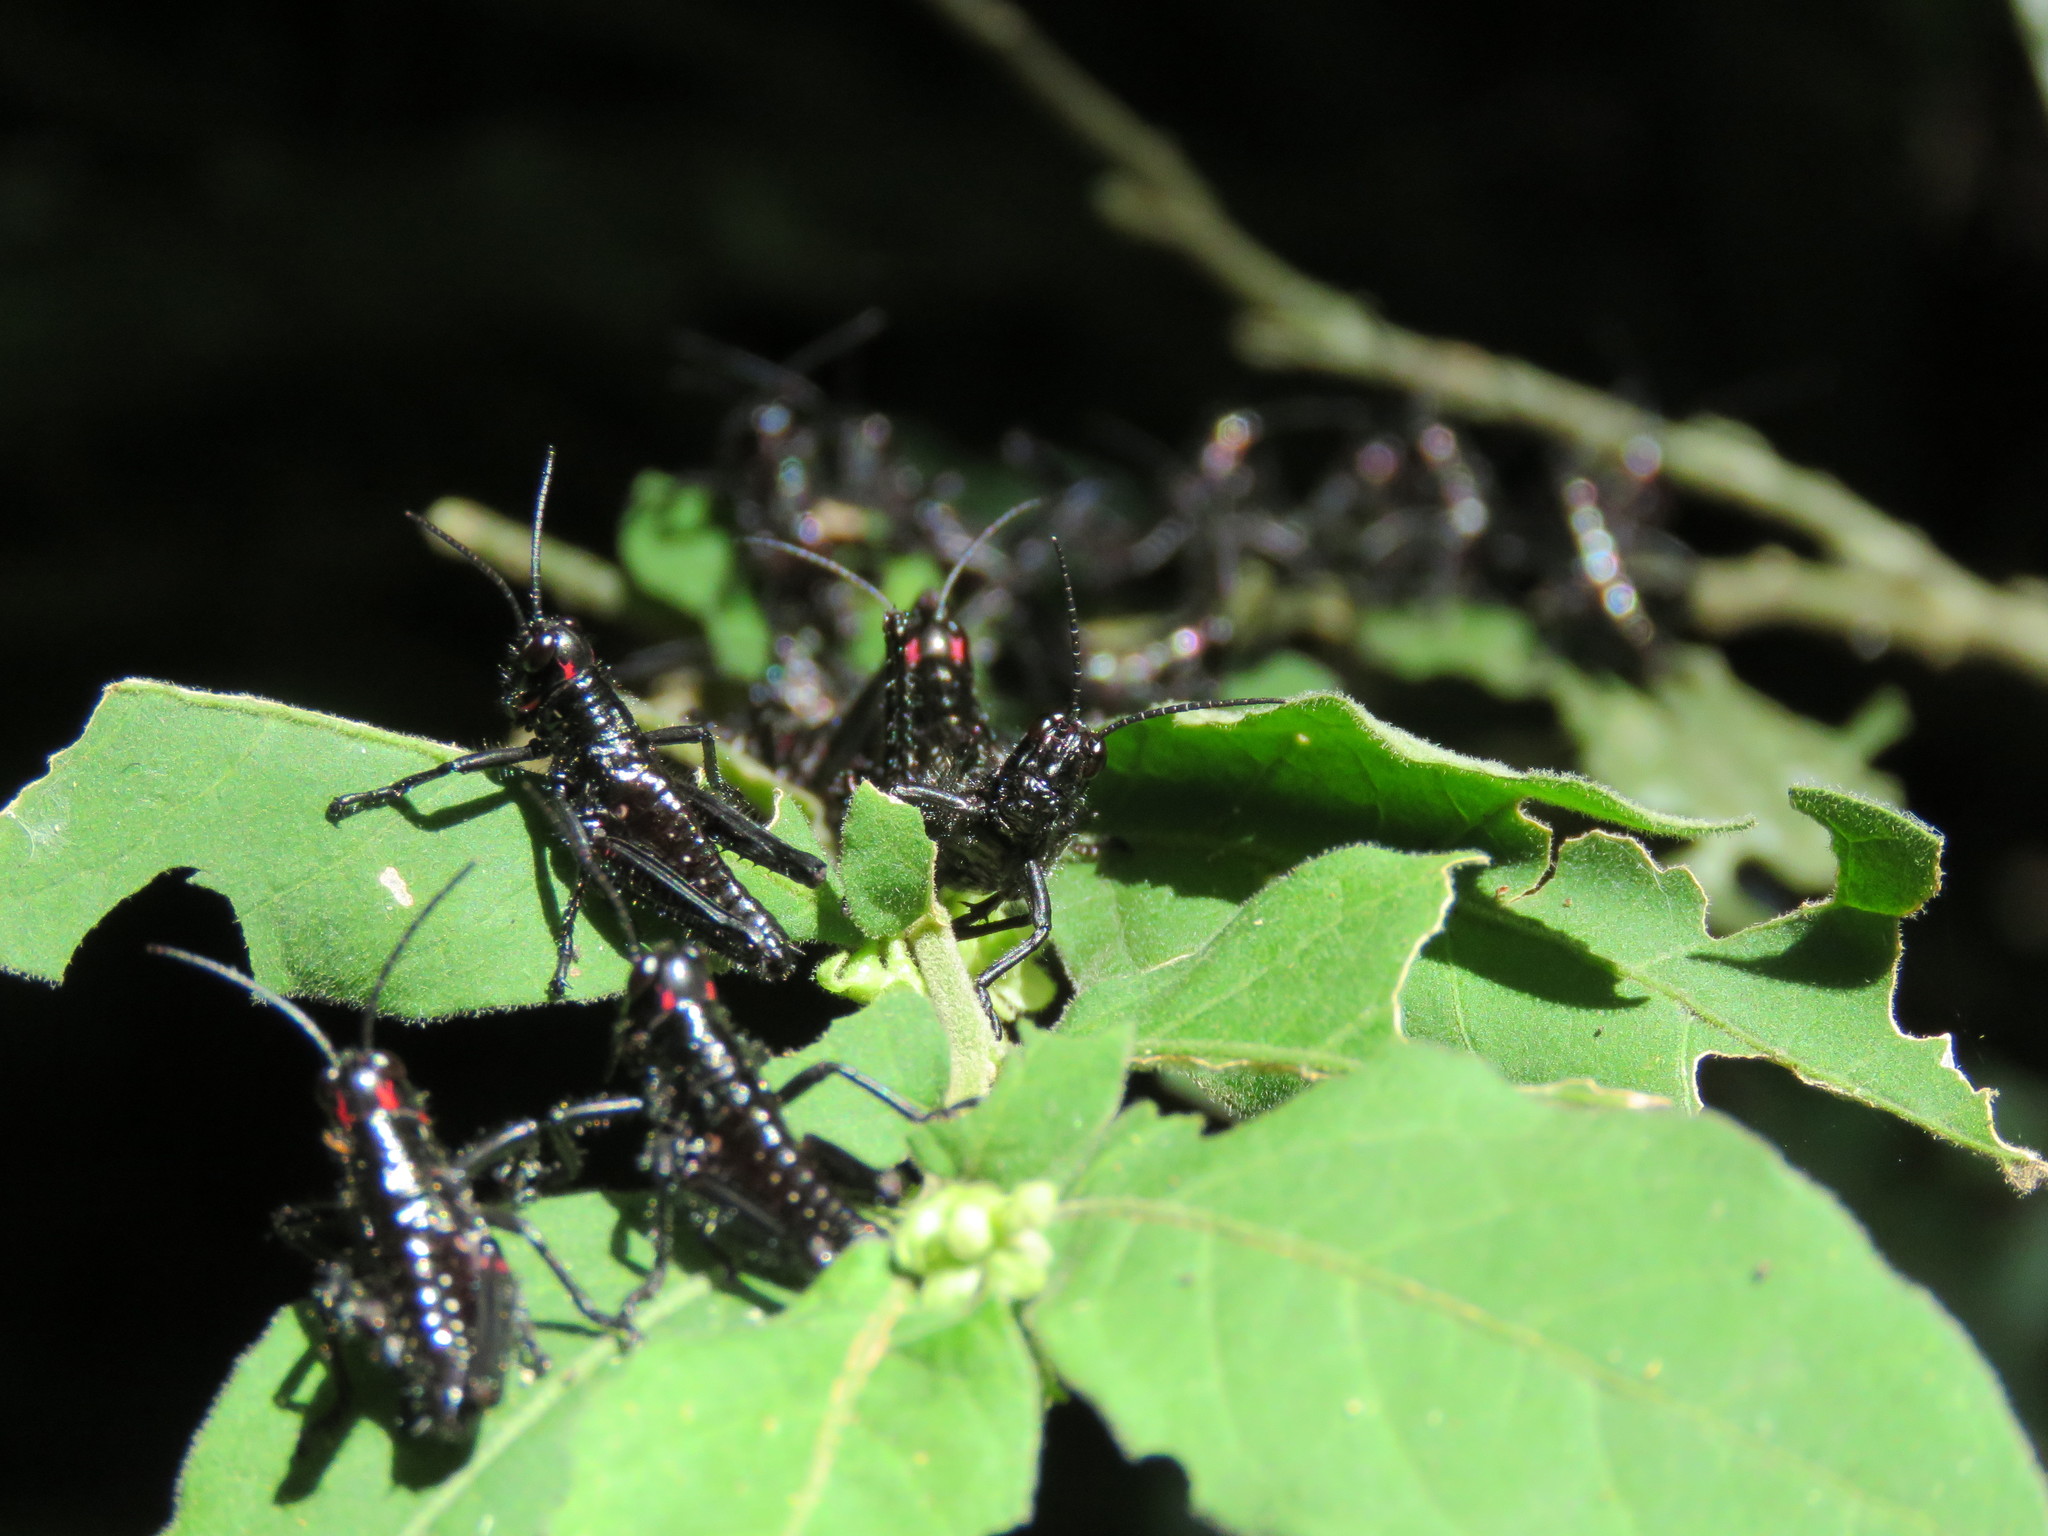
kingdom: Animalia
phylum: Arthropoda
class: Insecta
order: Orthoptera
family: Romaleidae
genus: Chromacris
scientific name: Chromacris speciosa
